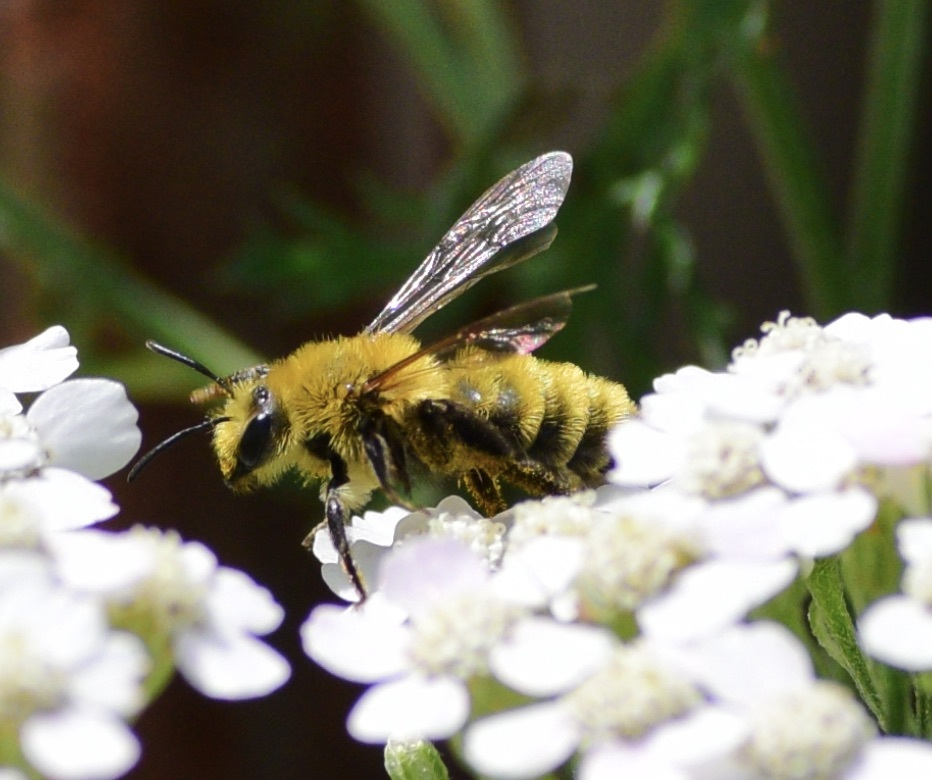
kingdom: Animalia
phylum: Arthropoda
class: Insecta
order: Hymenoptera
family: Andrenidae
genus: Andrena
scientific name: Andrena hirticincta
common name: Hairy-banded mining bee
